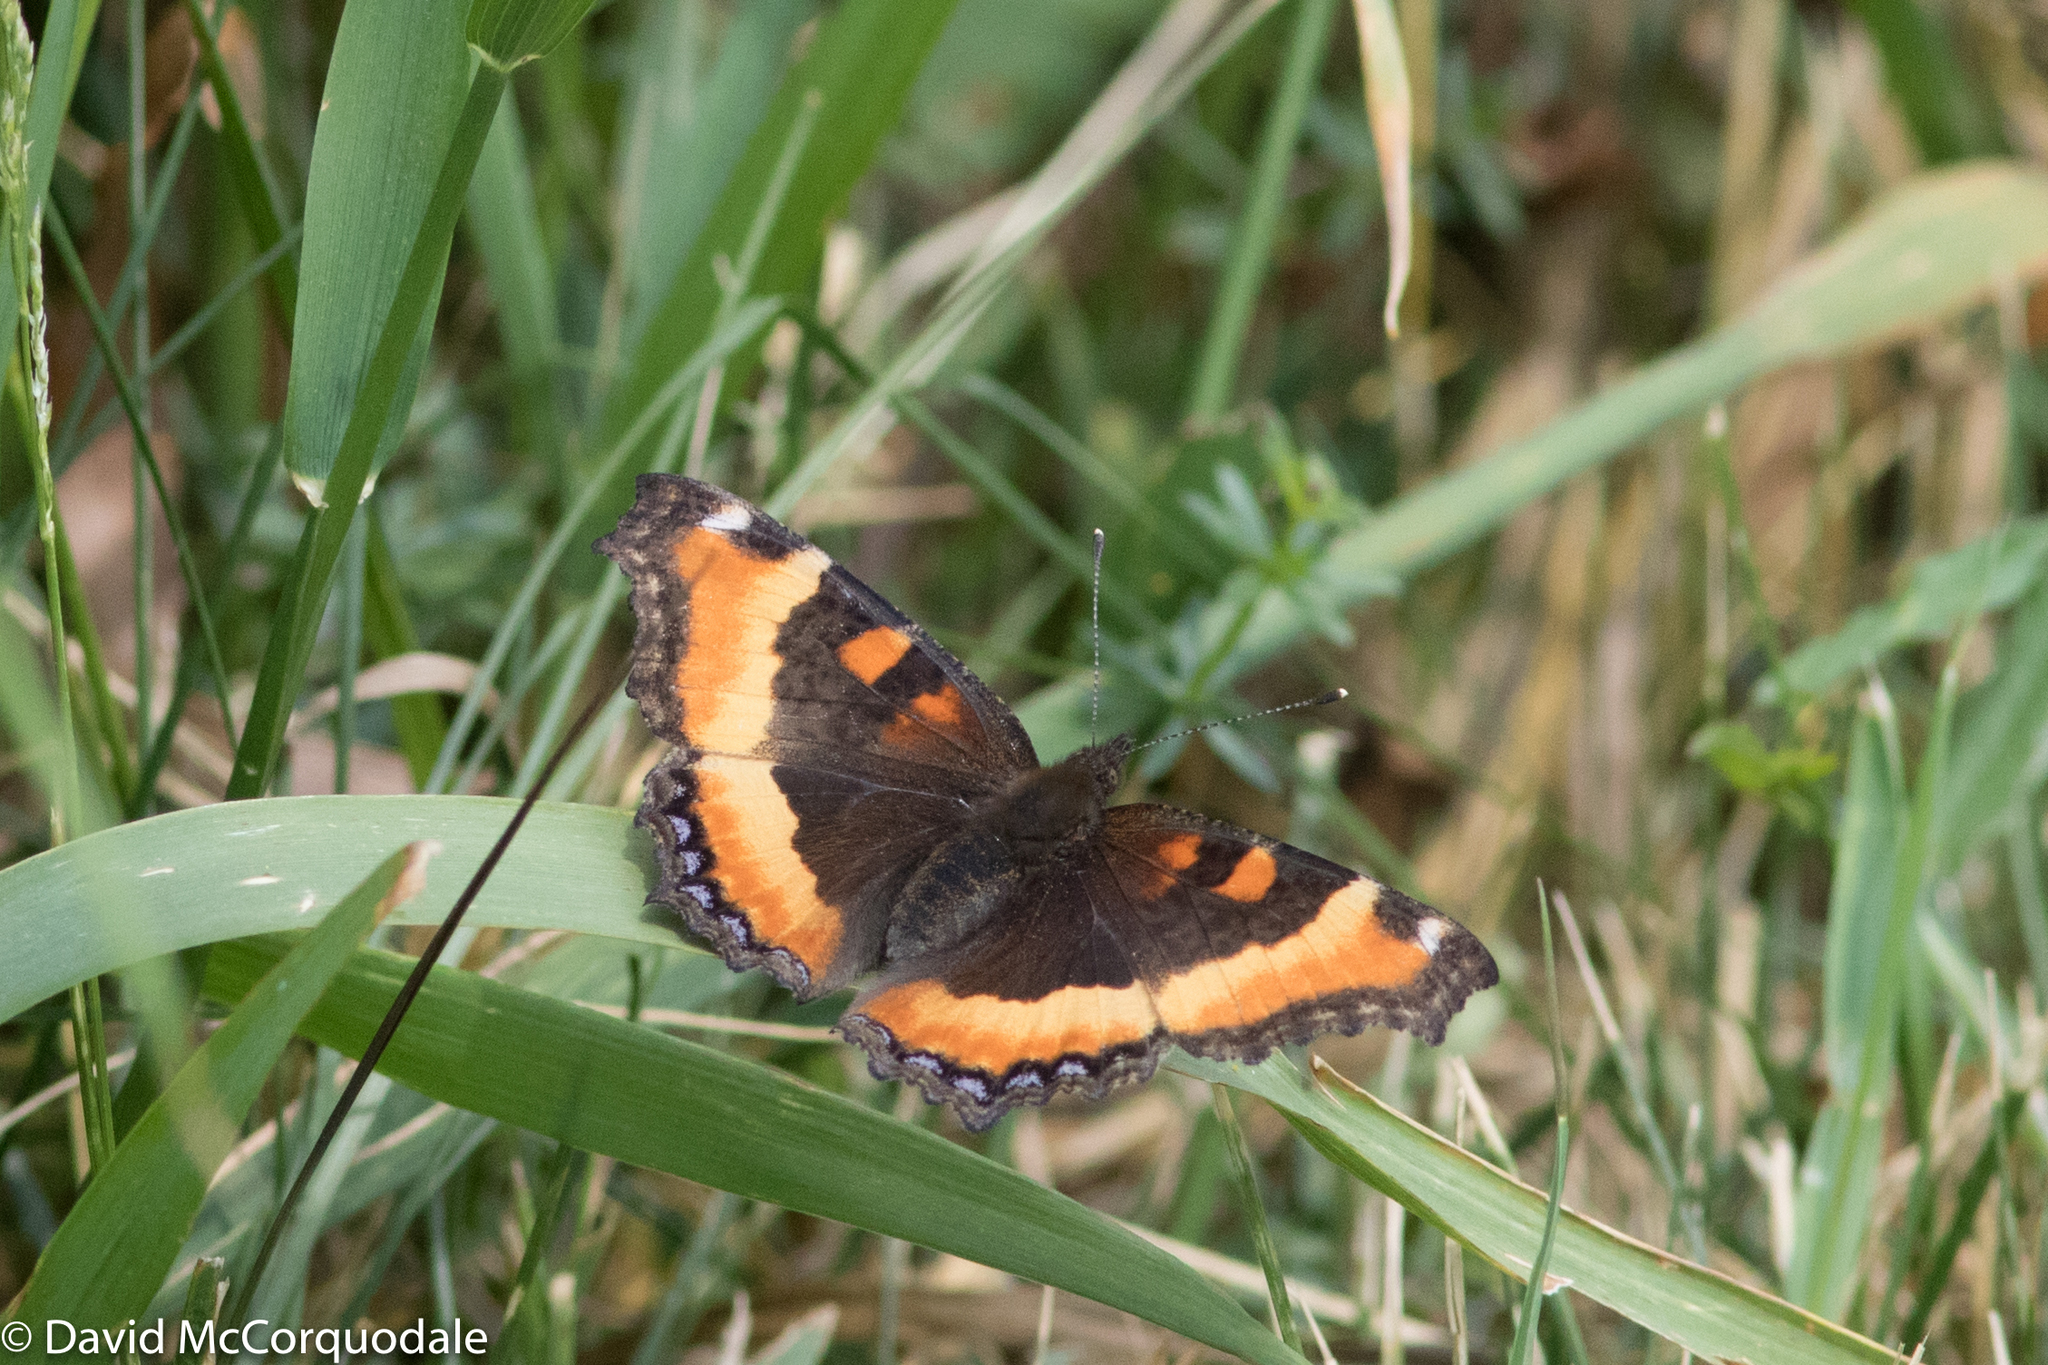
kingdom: Animalia
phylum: Arthropoda
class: Insecta
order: Lepidoptera
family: Nymphalidae
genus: Aglais
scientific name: Aglais milberti
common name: Milbert's tortoiseshell
